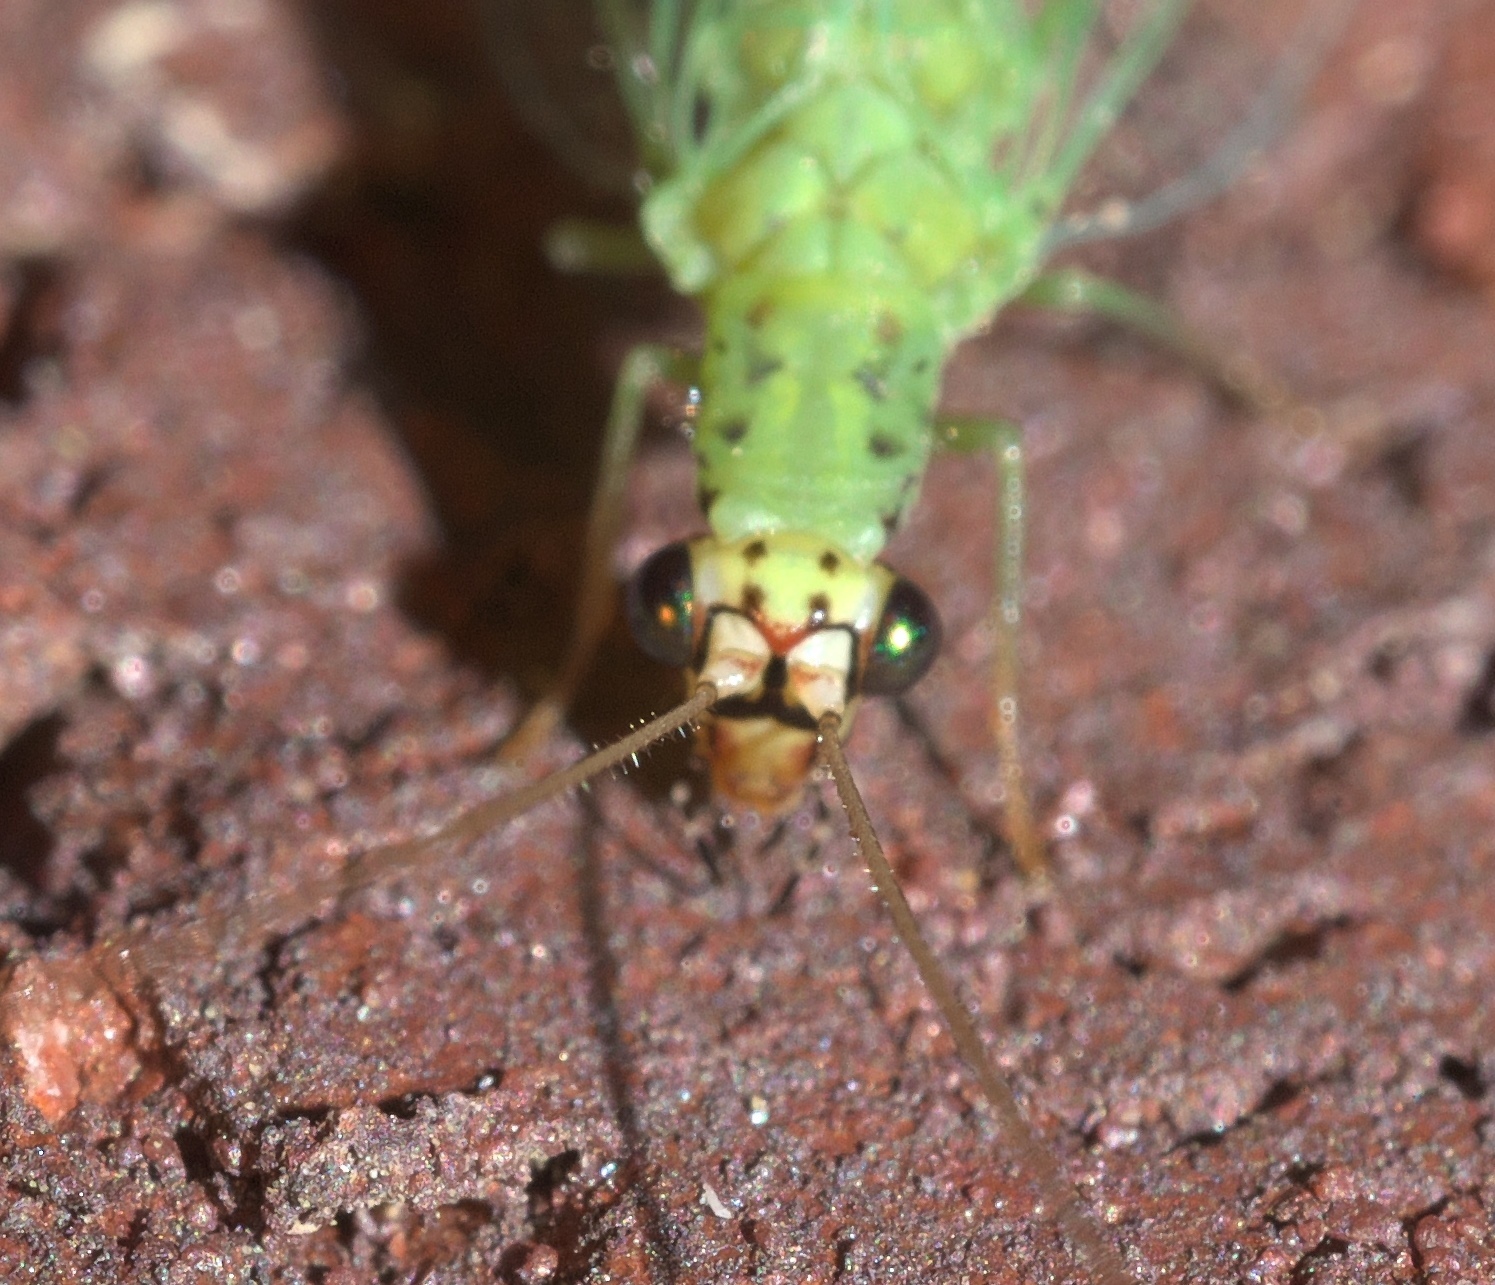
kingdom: Animalia
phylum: Arthropoda
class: Insecta
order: Neuroptera
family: Chrysopidae
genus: Chrysopa
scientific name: Chrysopa oculata
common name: Golden-eyed lacewing
